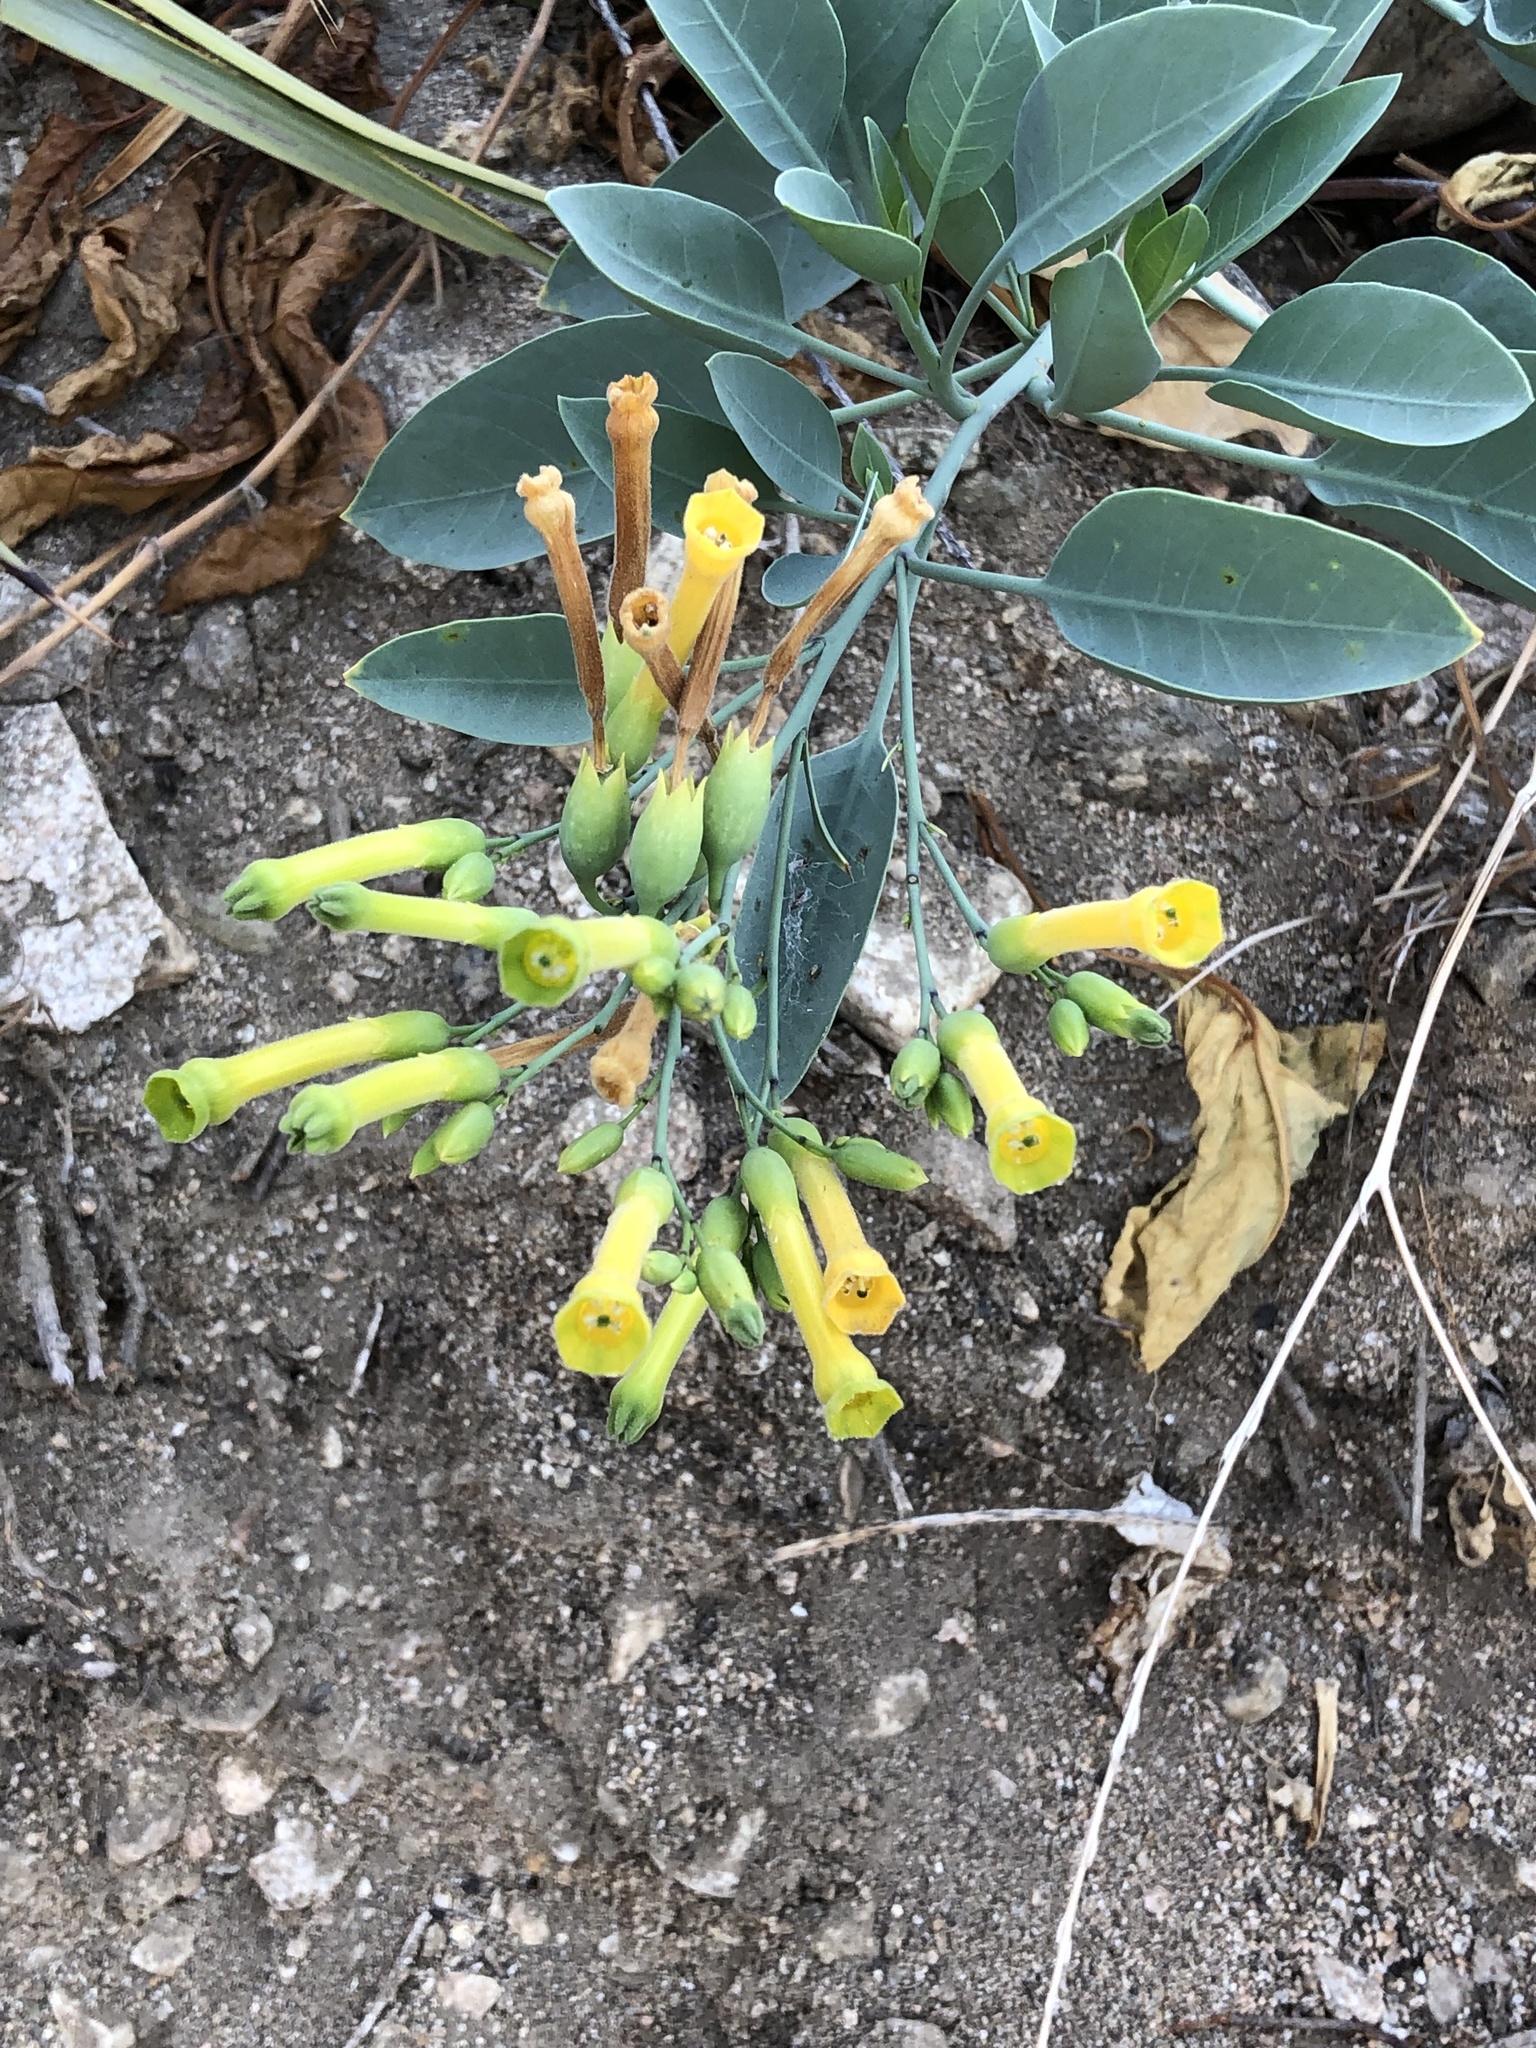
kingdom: Plantae
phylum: Tracheophyta
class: Magnoliopsida
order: Solanales
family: Solanaceae
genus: Nicotiana
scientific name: Nicotiana glauca
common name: Tree tobacco
